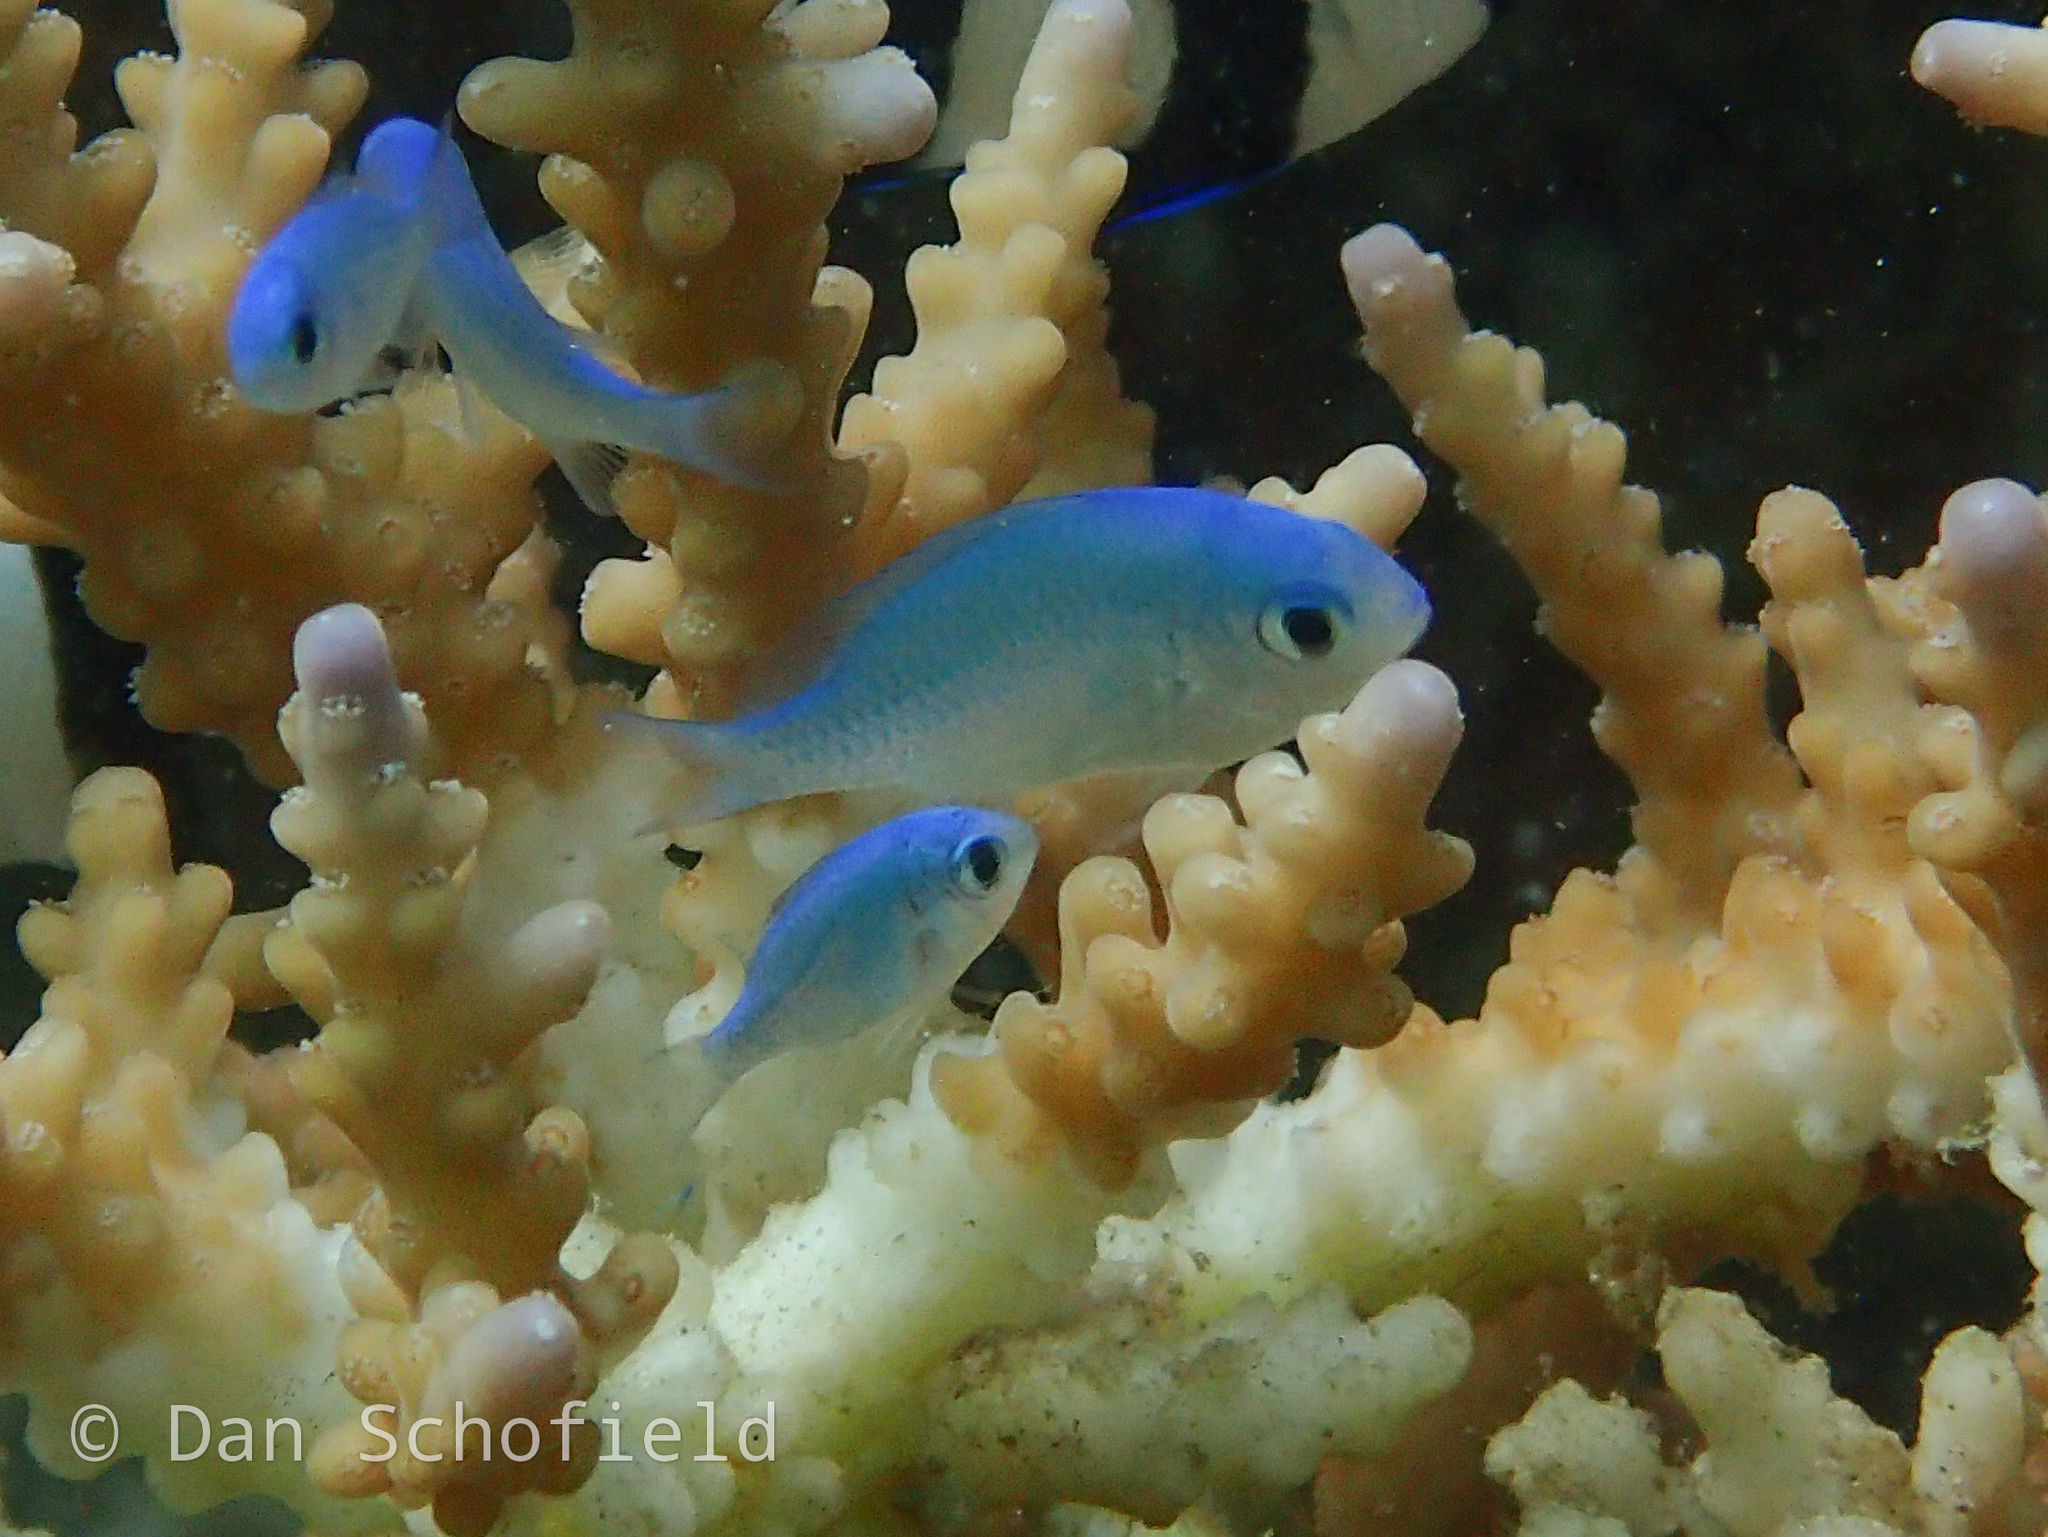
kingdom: Animalia
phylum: Chordata
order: Perciformes
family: Pomacentridae
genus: Chromis
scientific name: Chromis viridis
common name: Blue-green chromis
